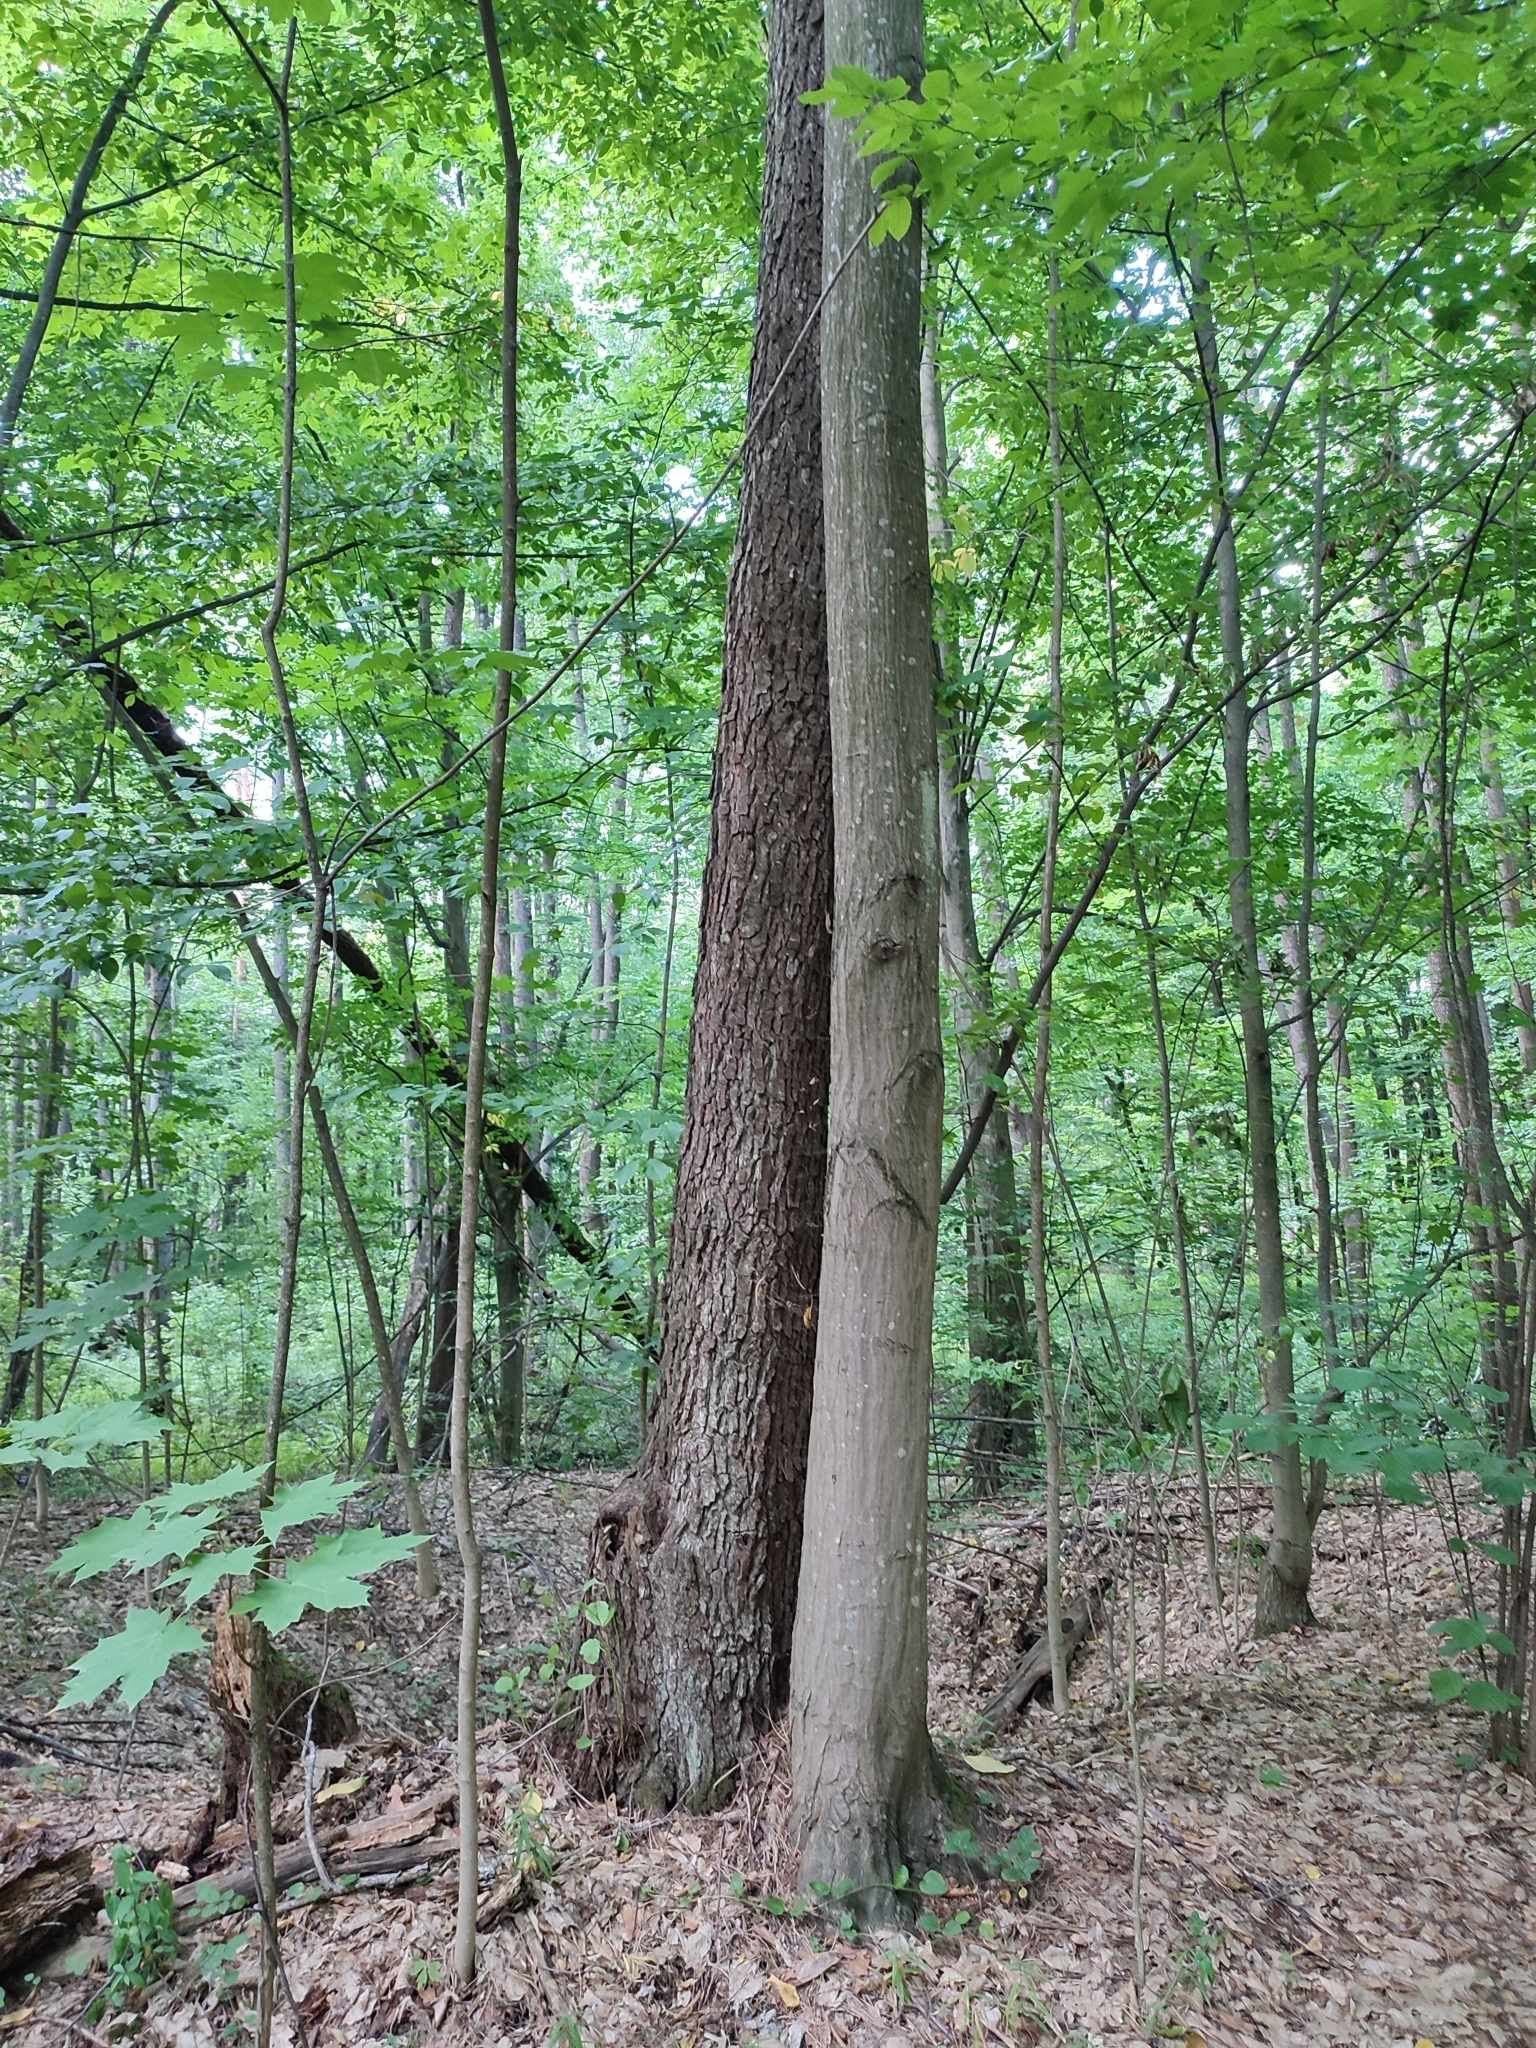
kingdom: Plantae
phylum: Tracheophyta
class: Magnoliopsida
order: Fagales
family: Betulaceae
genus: Carpinus
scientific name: Carpinus betulus
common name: Hornbeam
